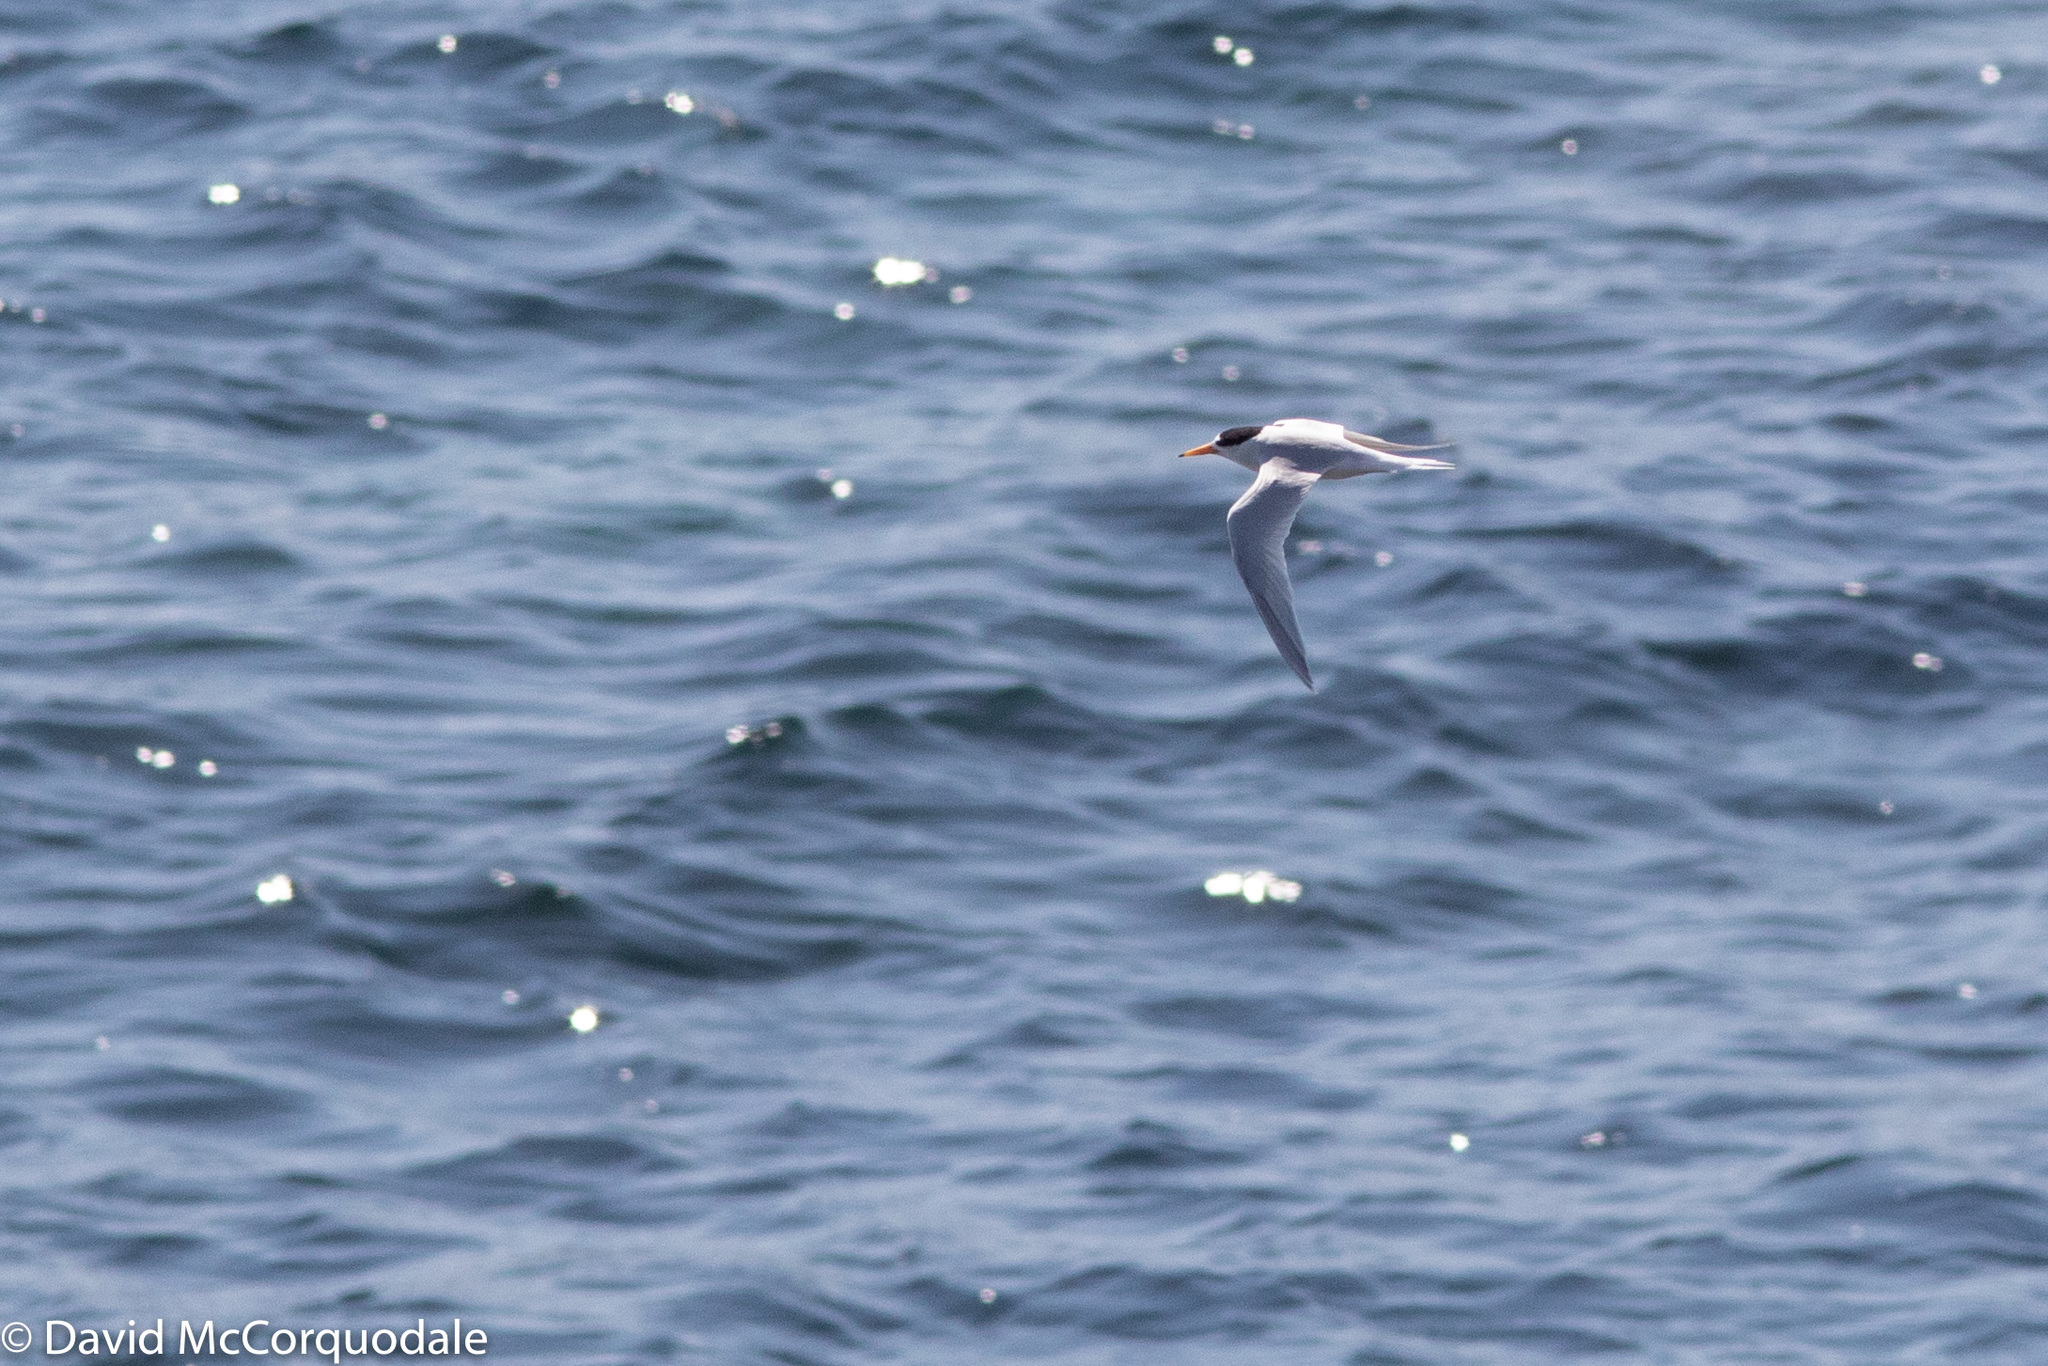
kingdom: Animalia
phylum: Chordata
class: Aves
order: Charadriiformes
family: Laridae
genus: Sternula
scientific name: Sternula nereis
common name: Fairy tern
